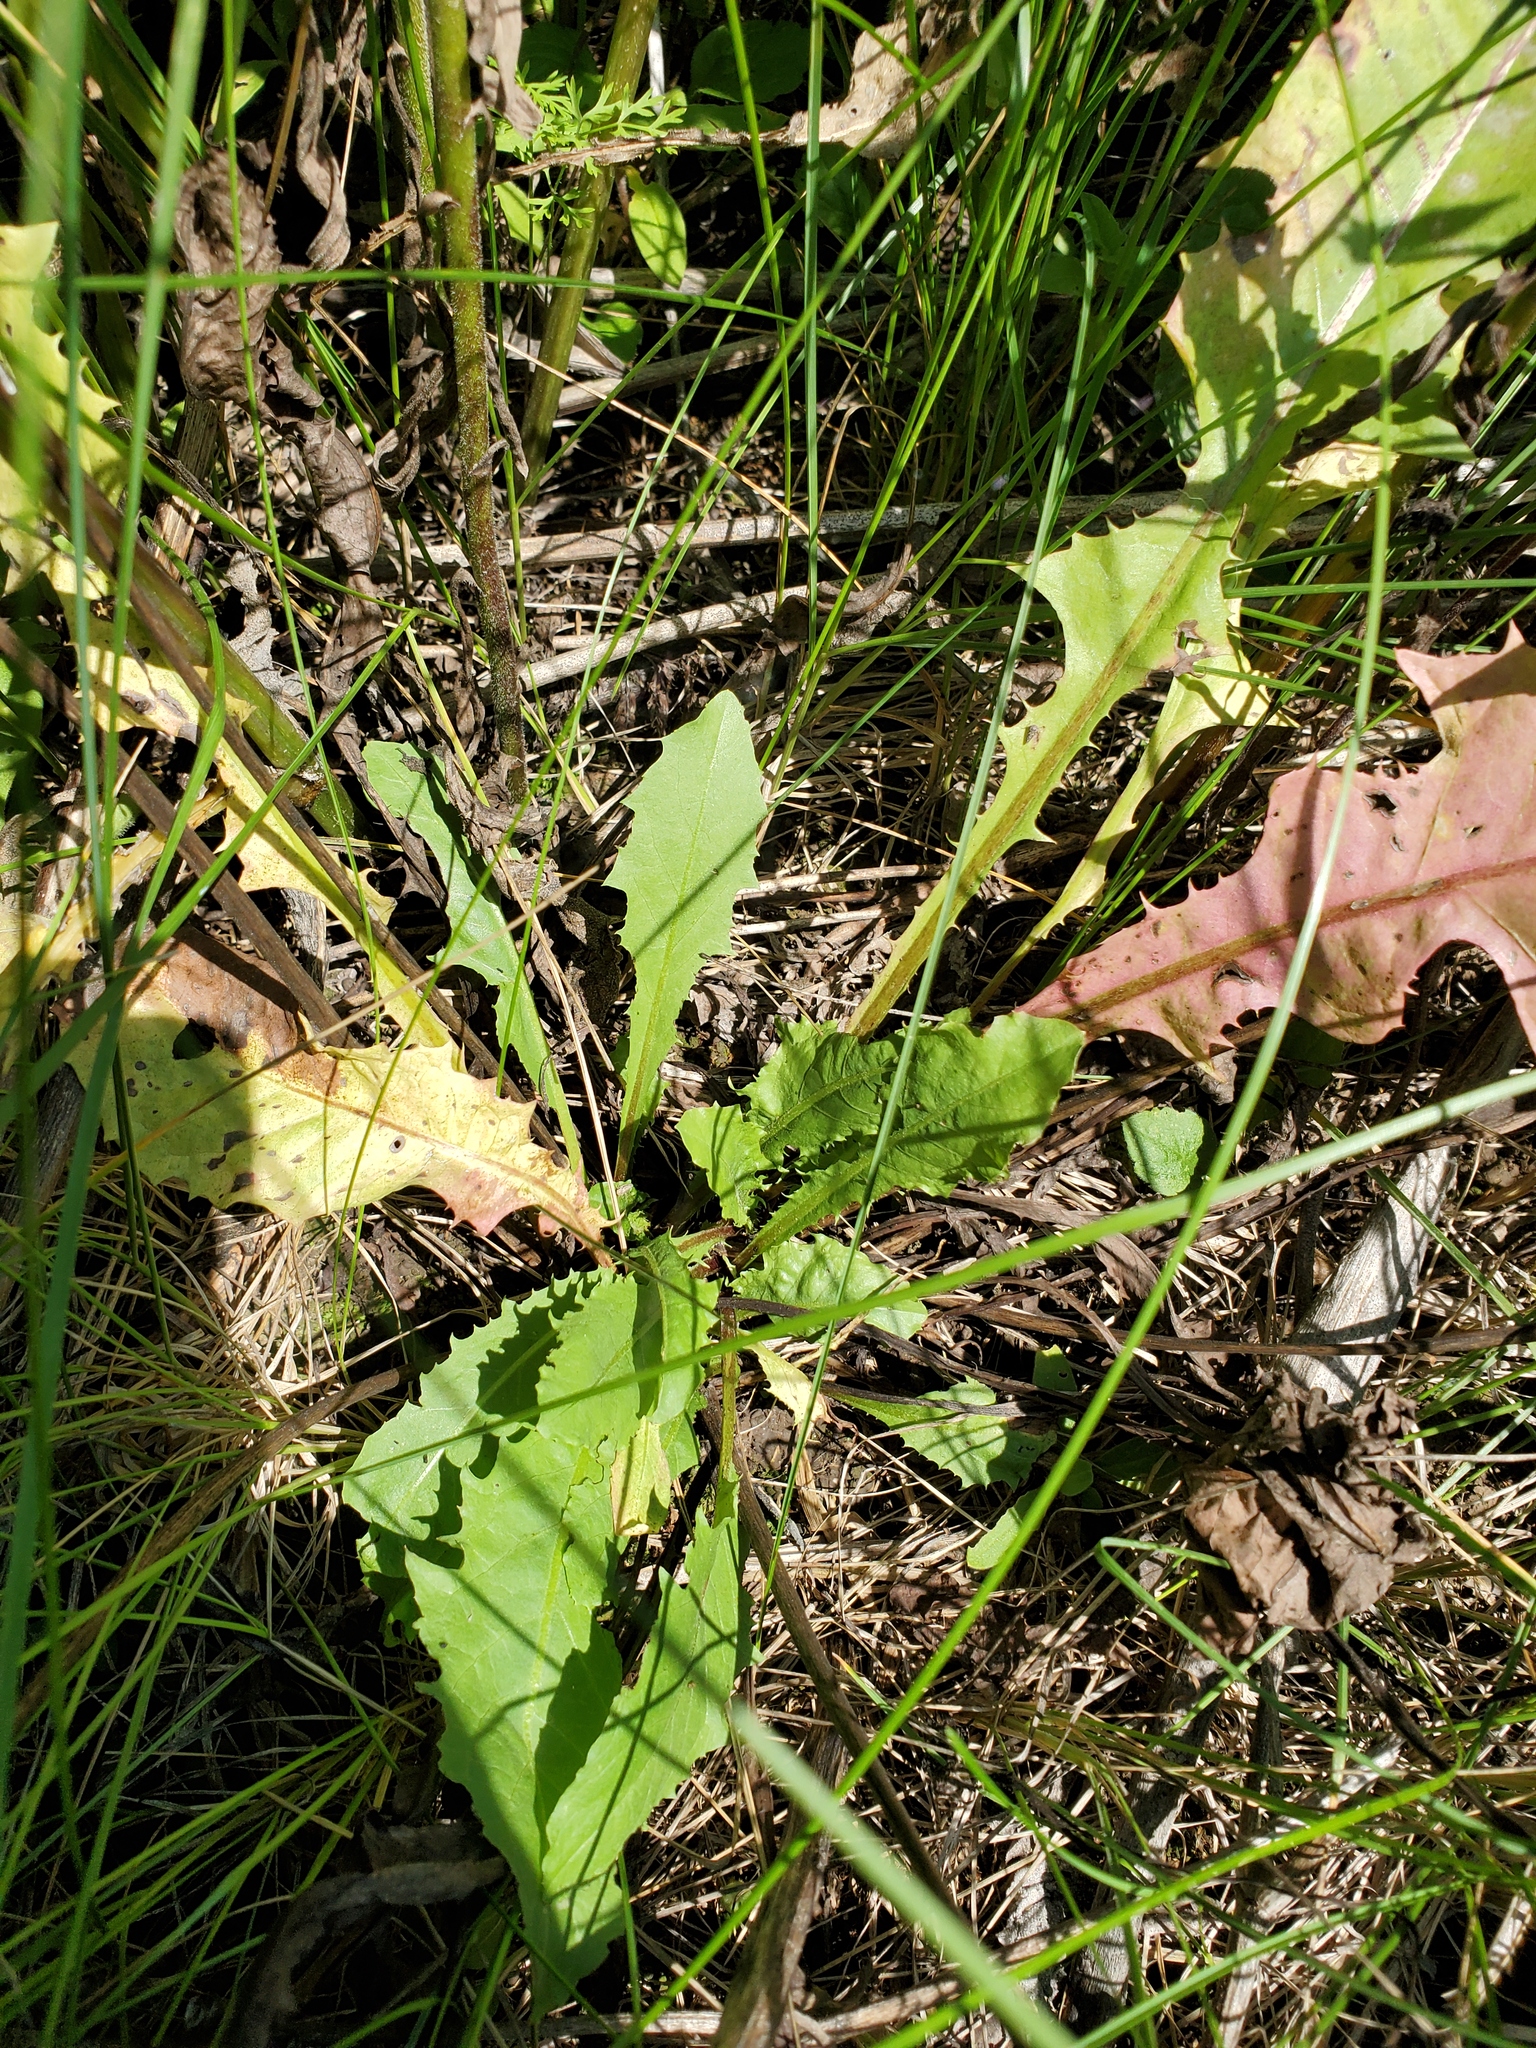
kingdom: Plantae
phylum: Tracheophyta
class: Magnoliopsida
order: Asterales
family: Asteraceae
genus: Taraxacum
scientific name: Taraxacum officinale
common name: Common dandelion
